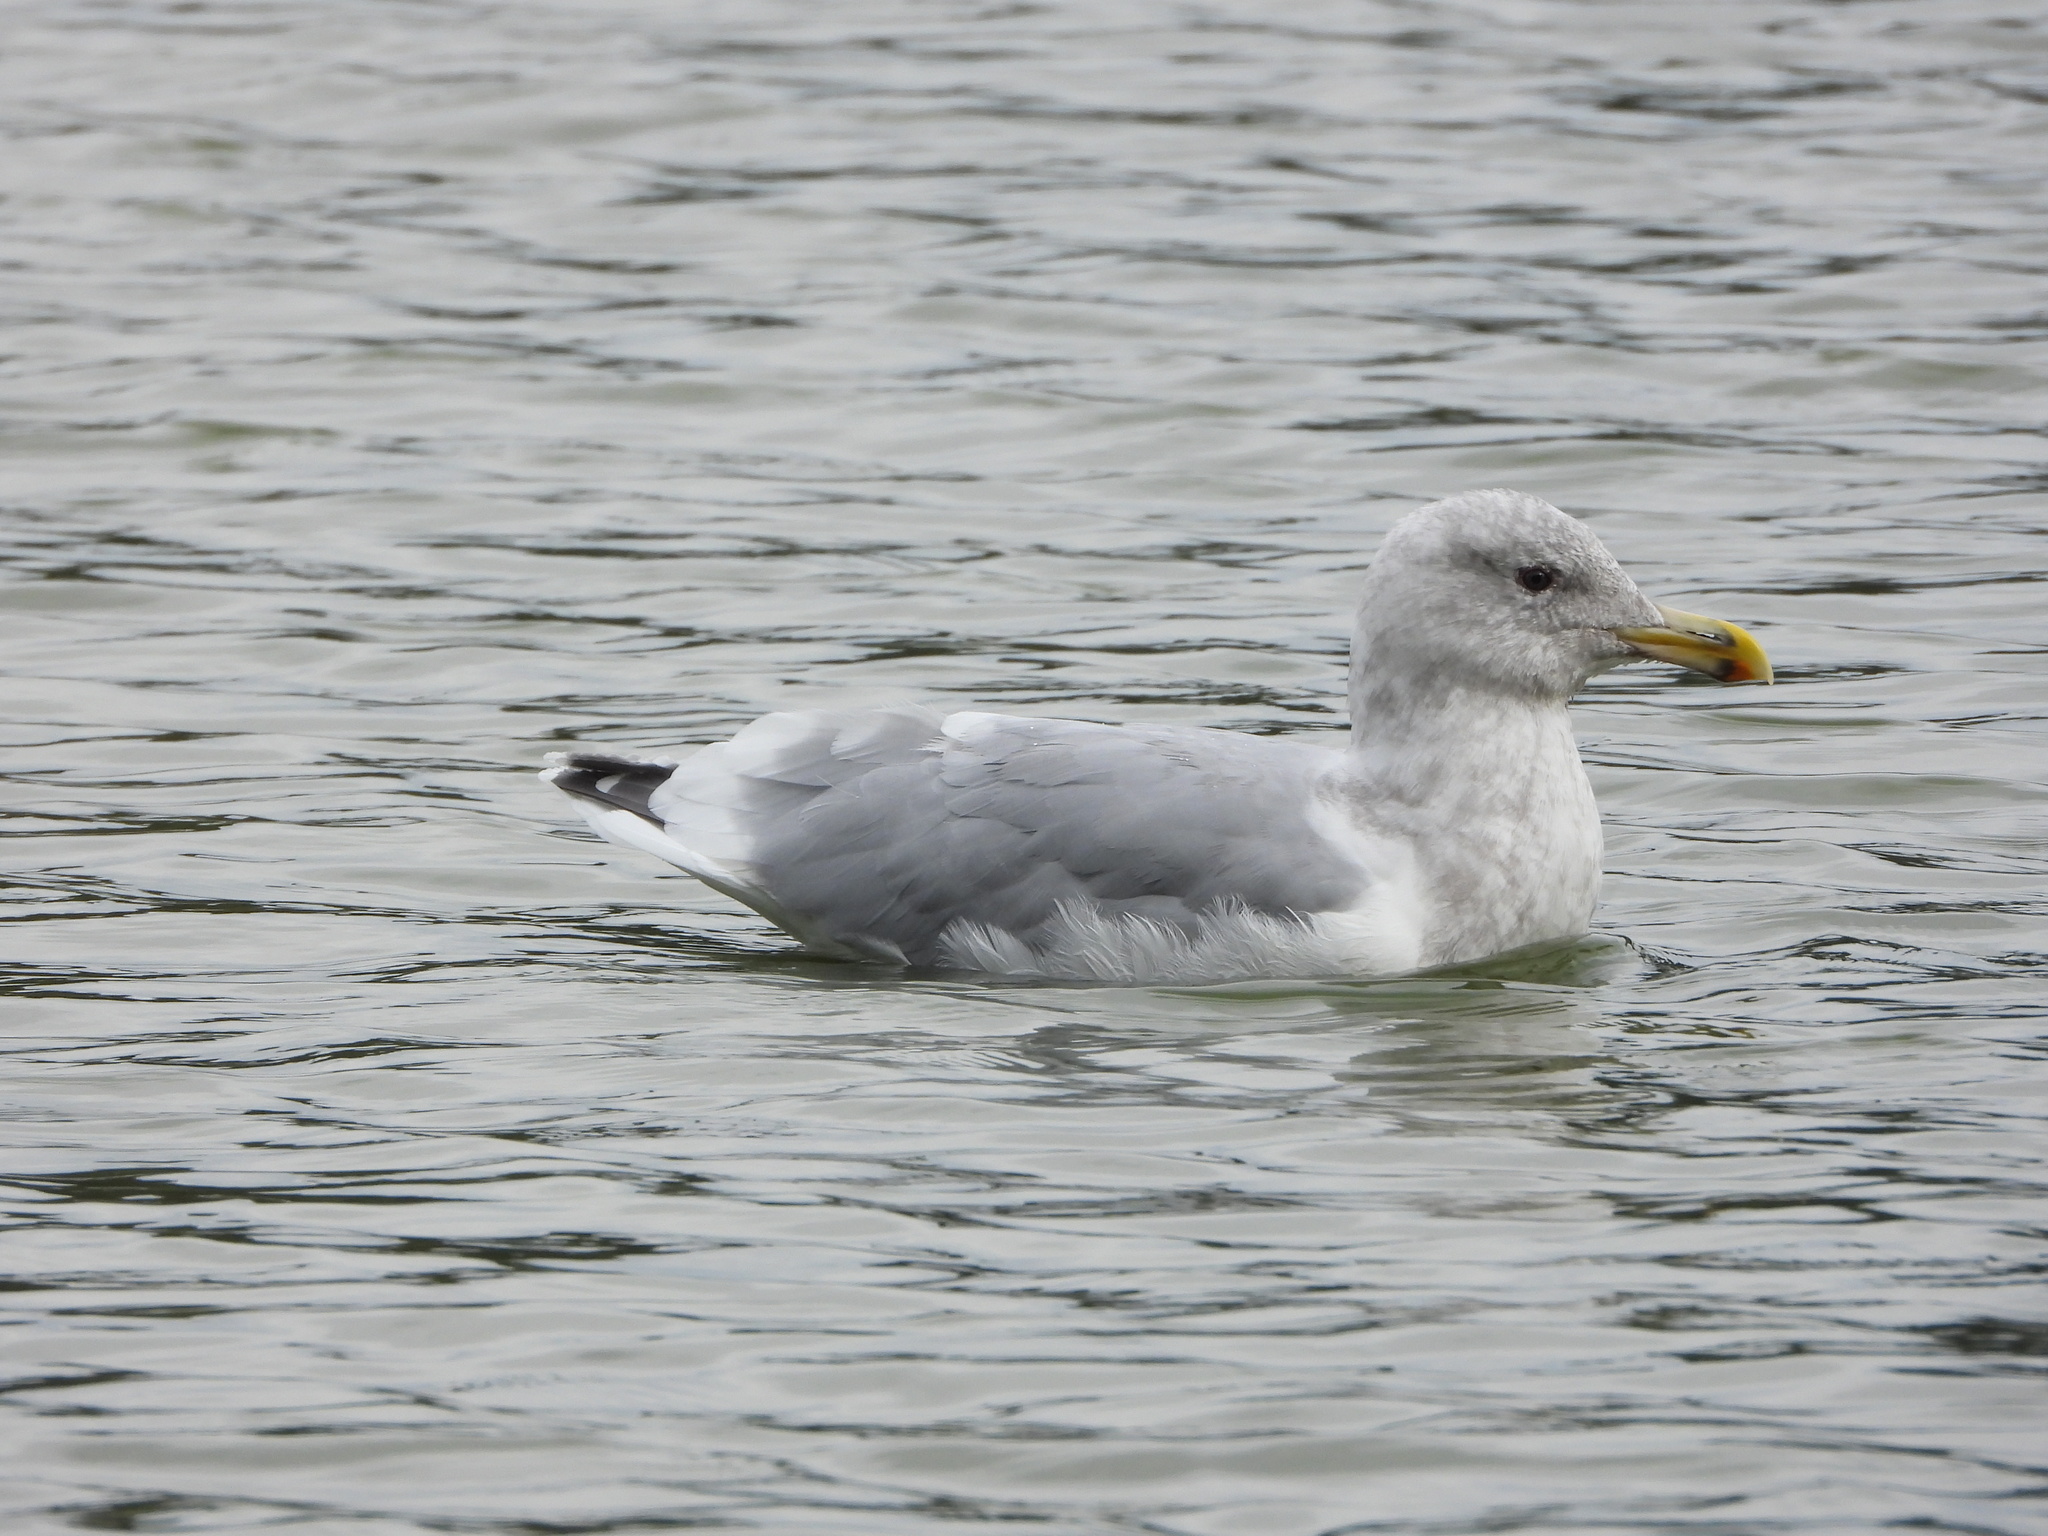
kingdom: Animalia
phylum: Chordata
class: Aves
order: Charadriiformes
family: Laridae
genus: Larus
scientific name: Larus
